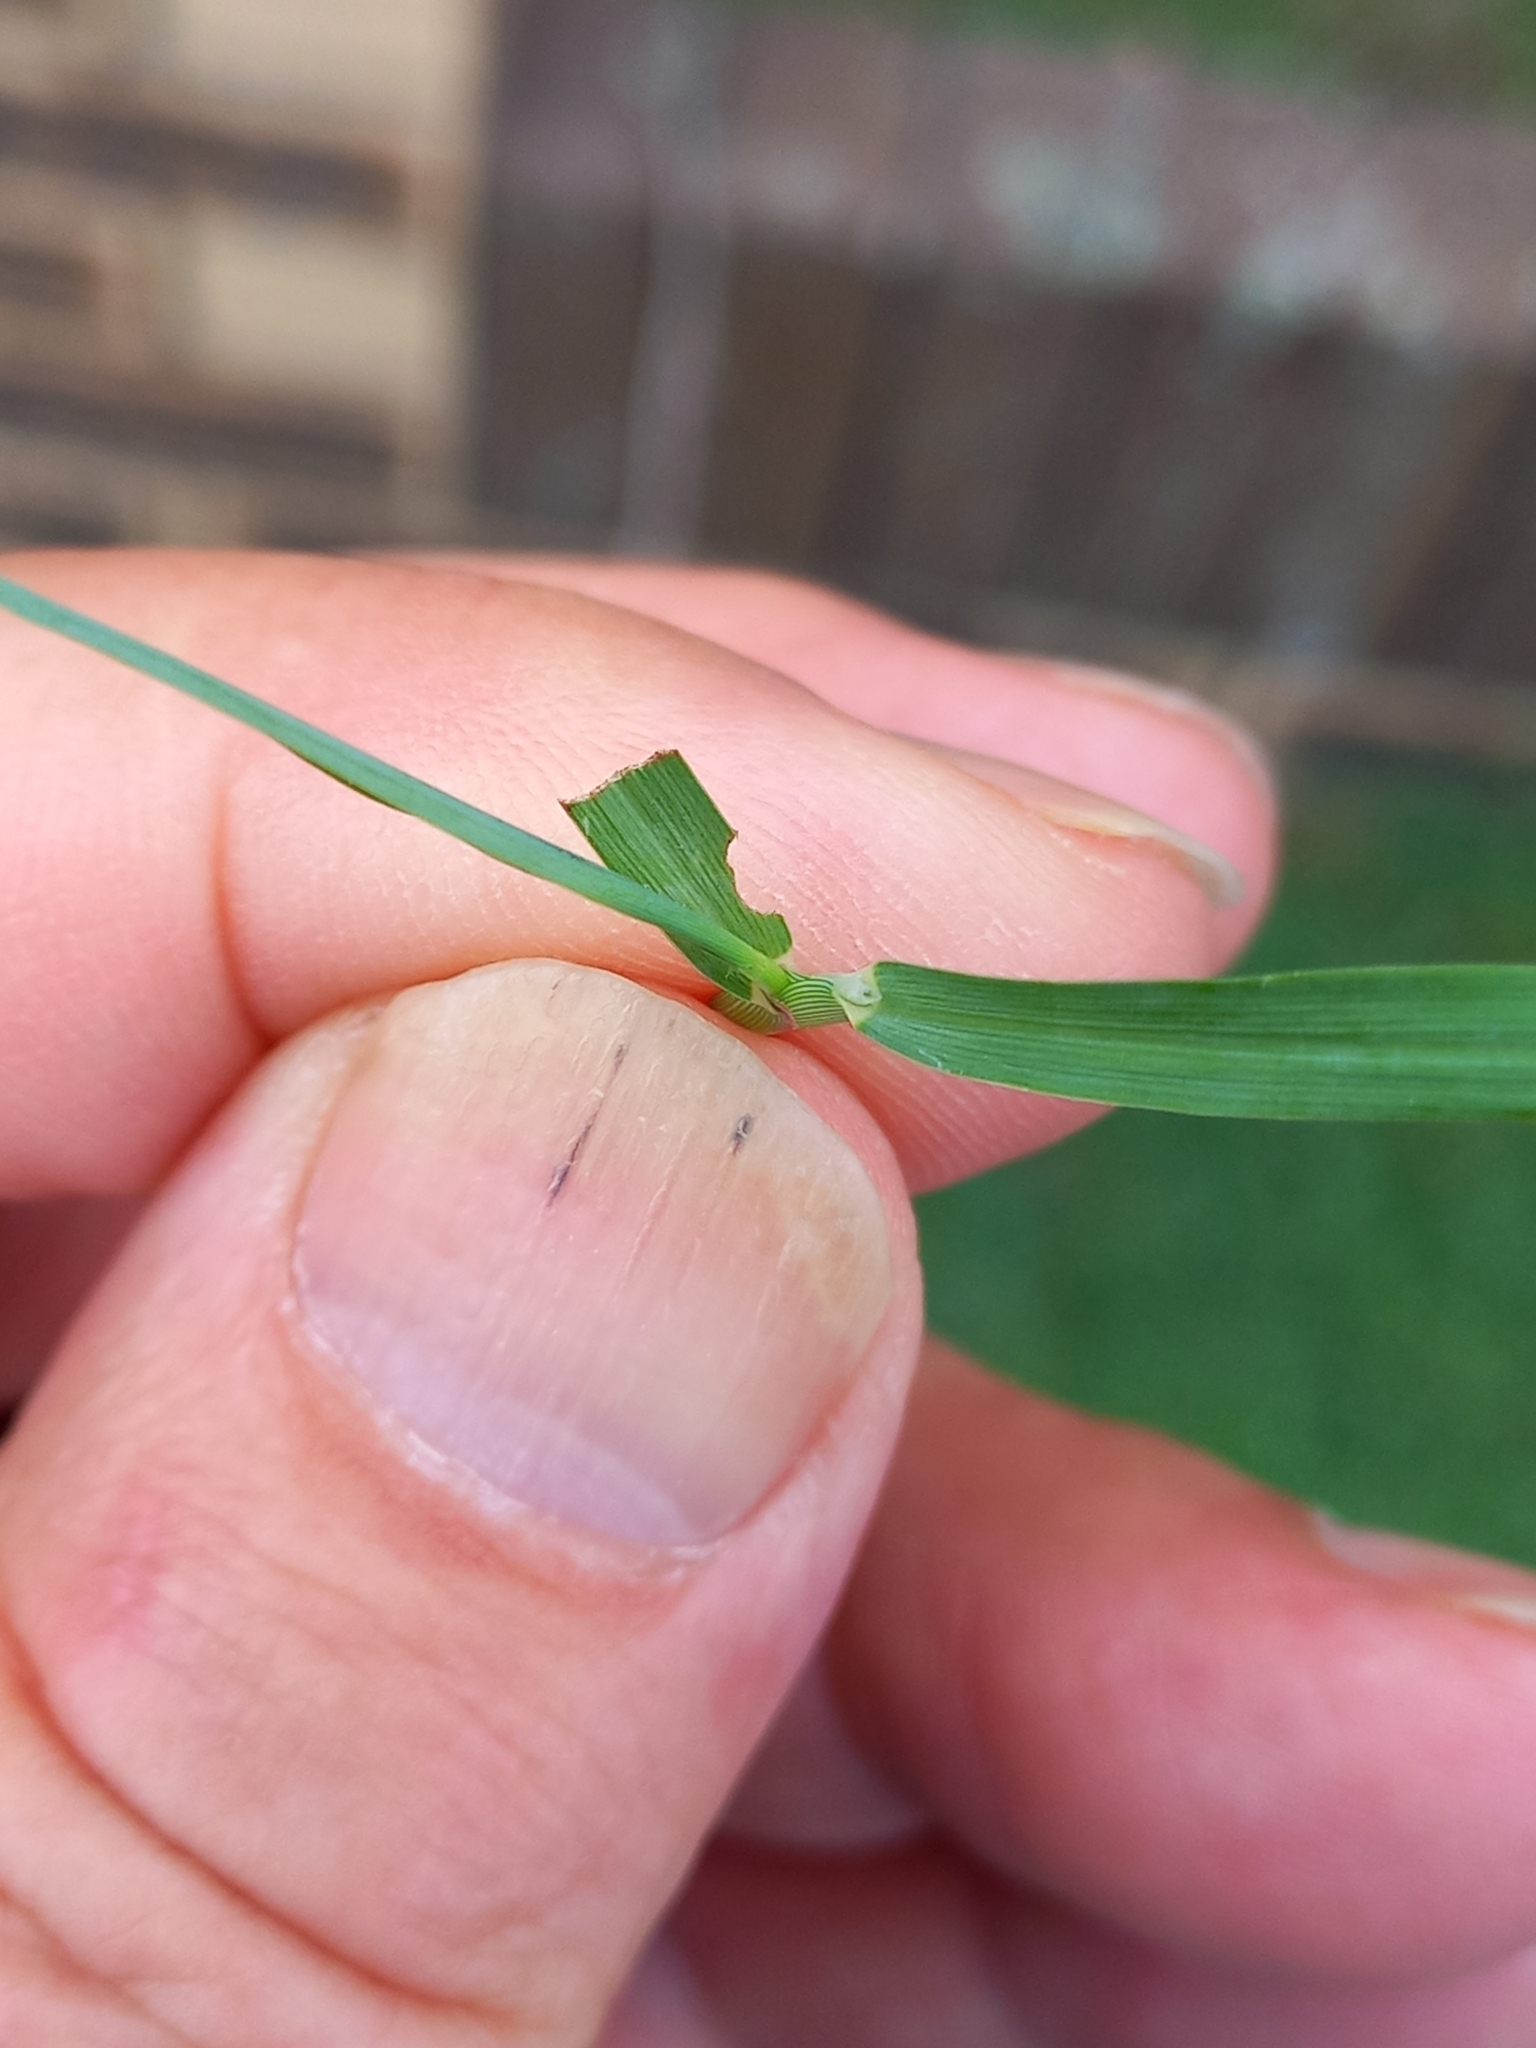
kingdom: Plantae
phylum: Tracheophyta
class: Liliopsida
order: Poales
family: Poaceae
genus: Digitaria
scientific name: Digitaria didactyla
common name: Blue couch
